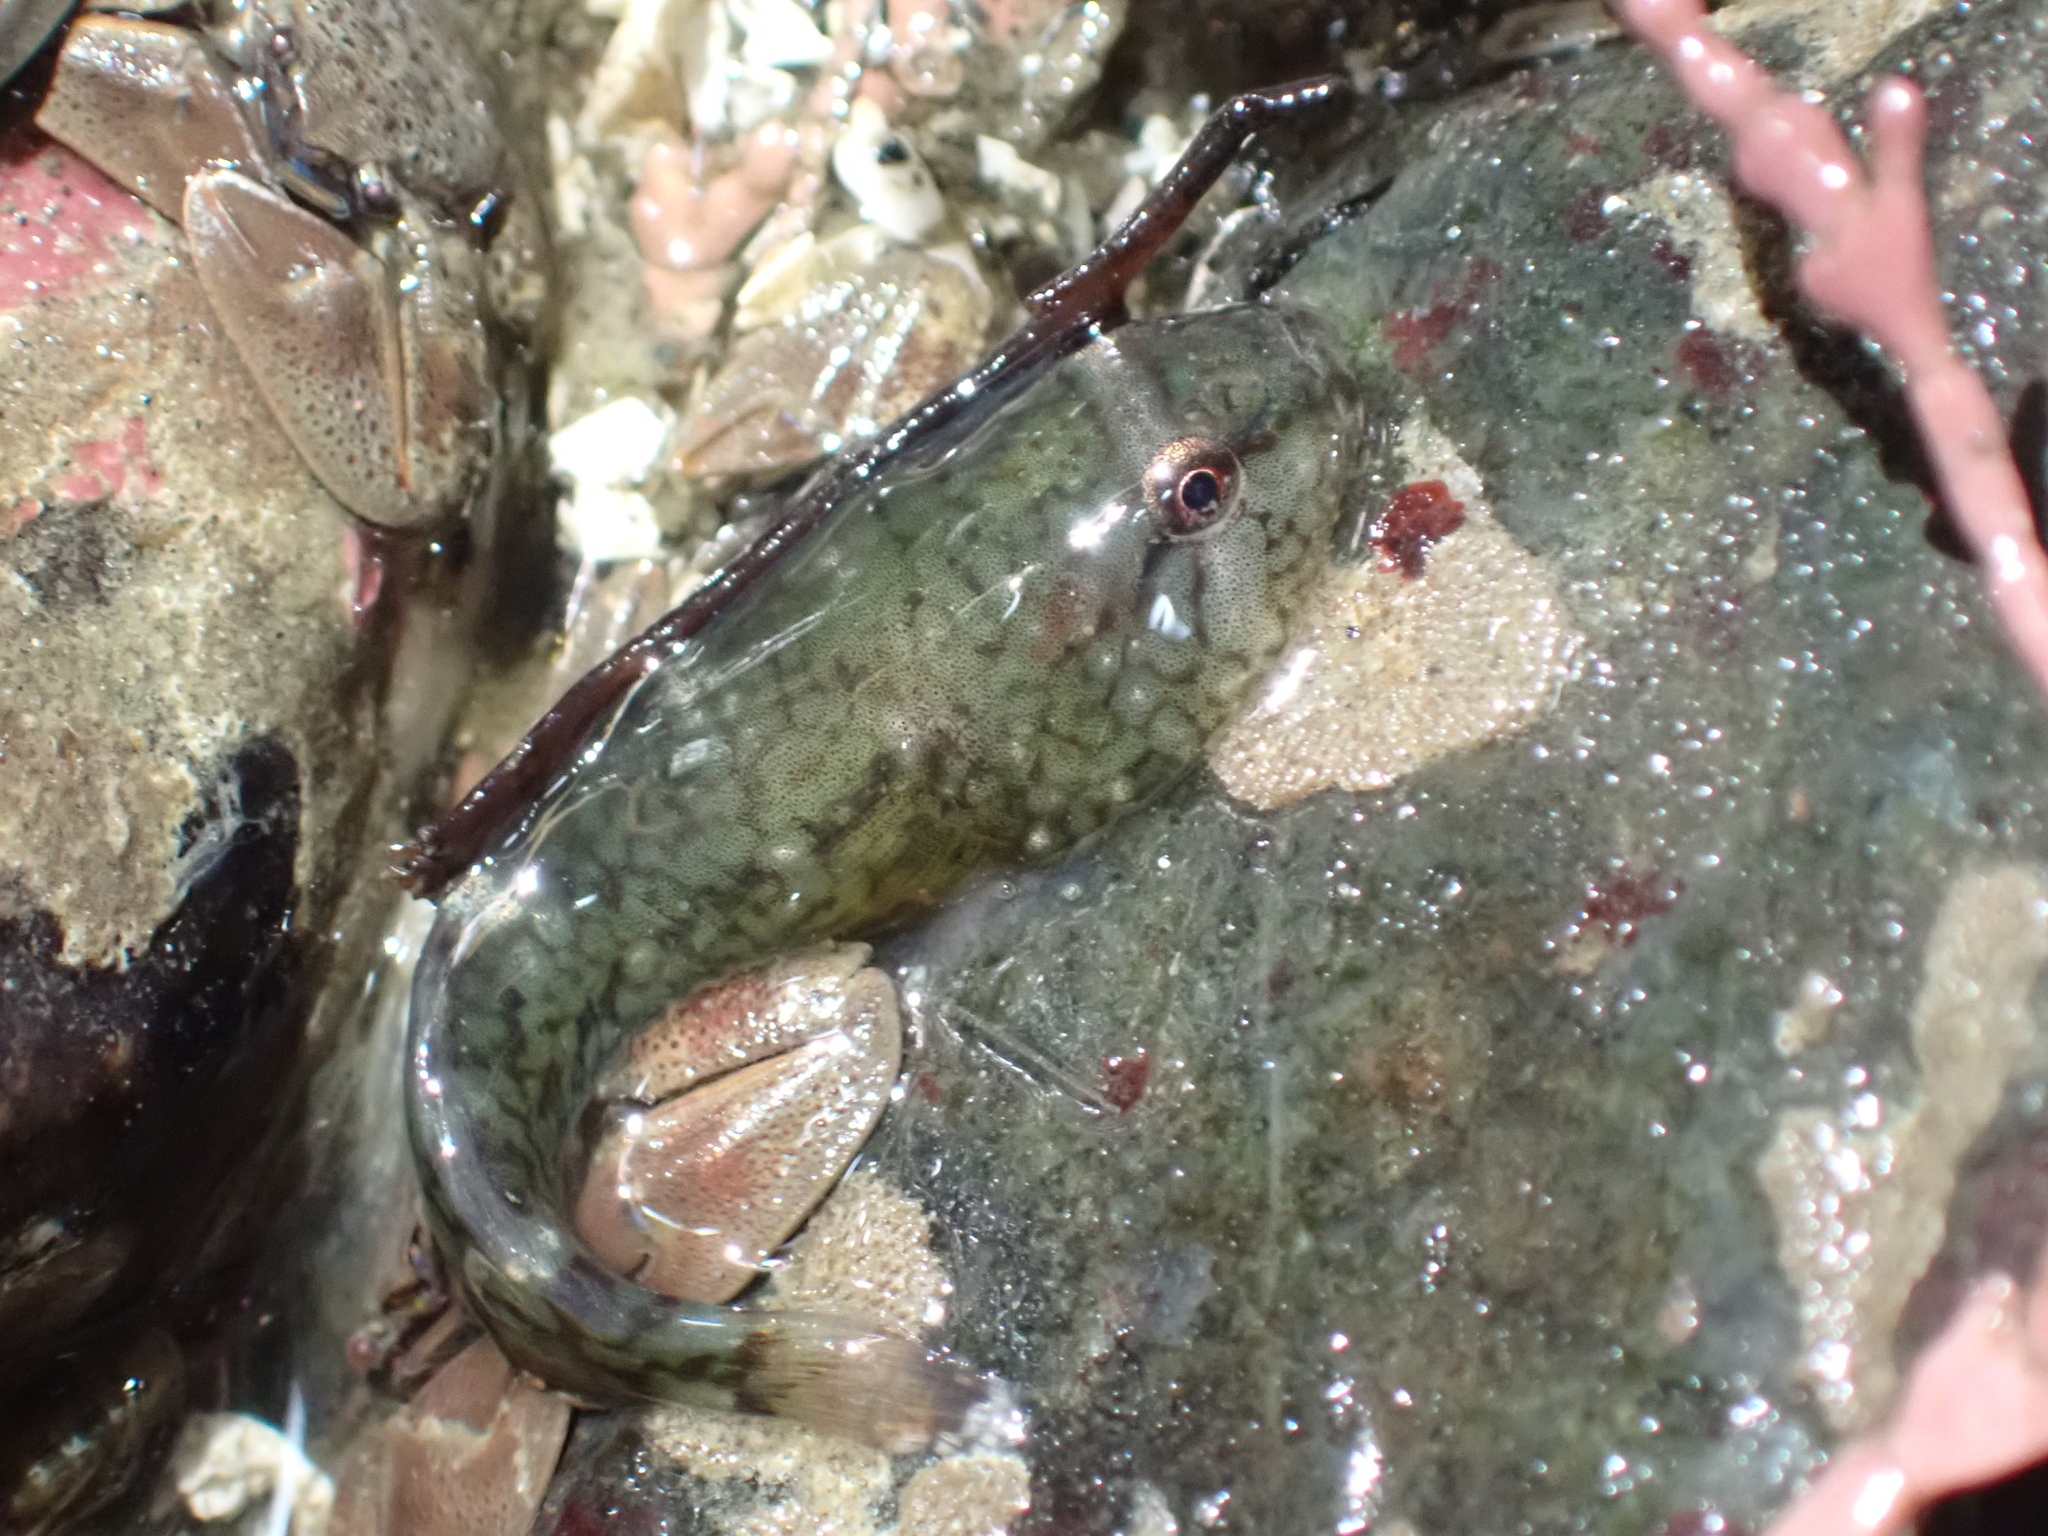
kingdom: Animalia
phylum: Chordata
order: Gobiesociformes
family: Gobiesocidae
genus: Gobiesox
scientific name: Gobiesox maeandricus
